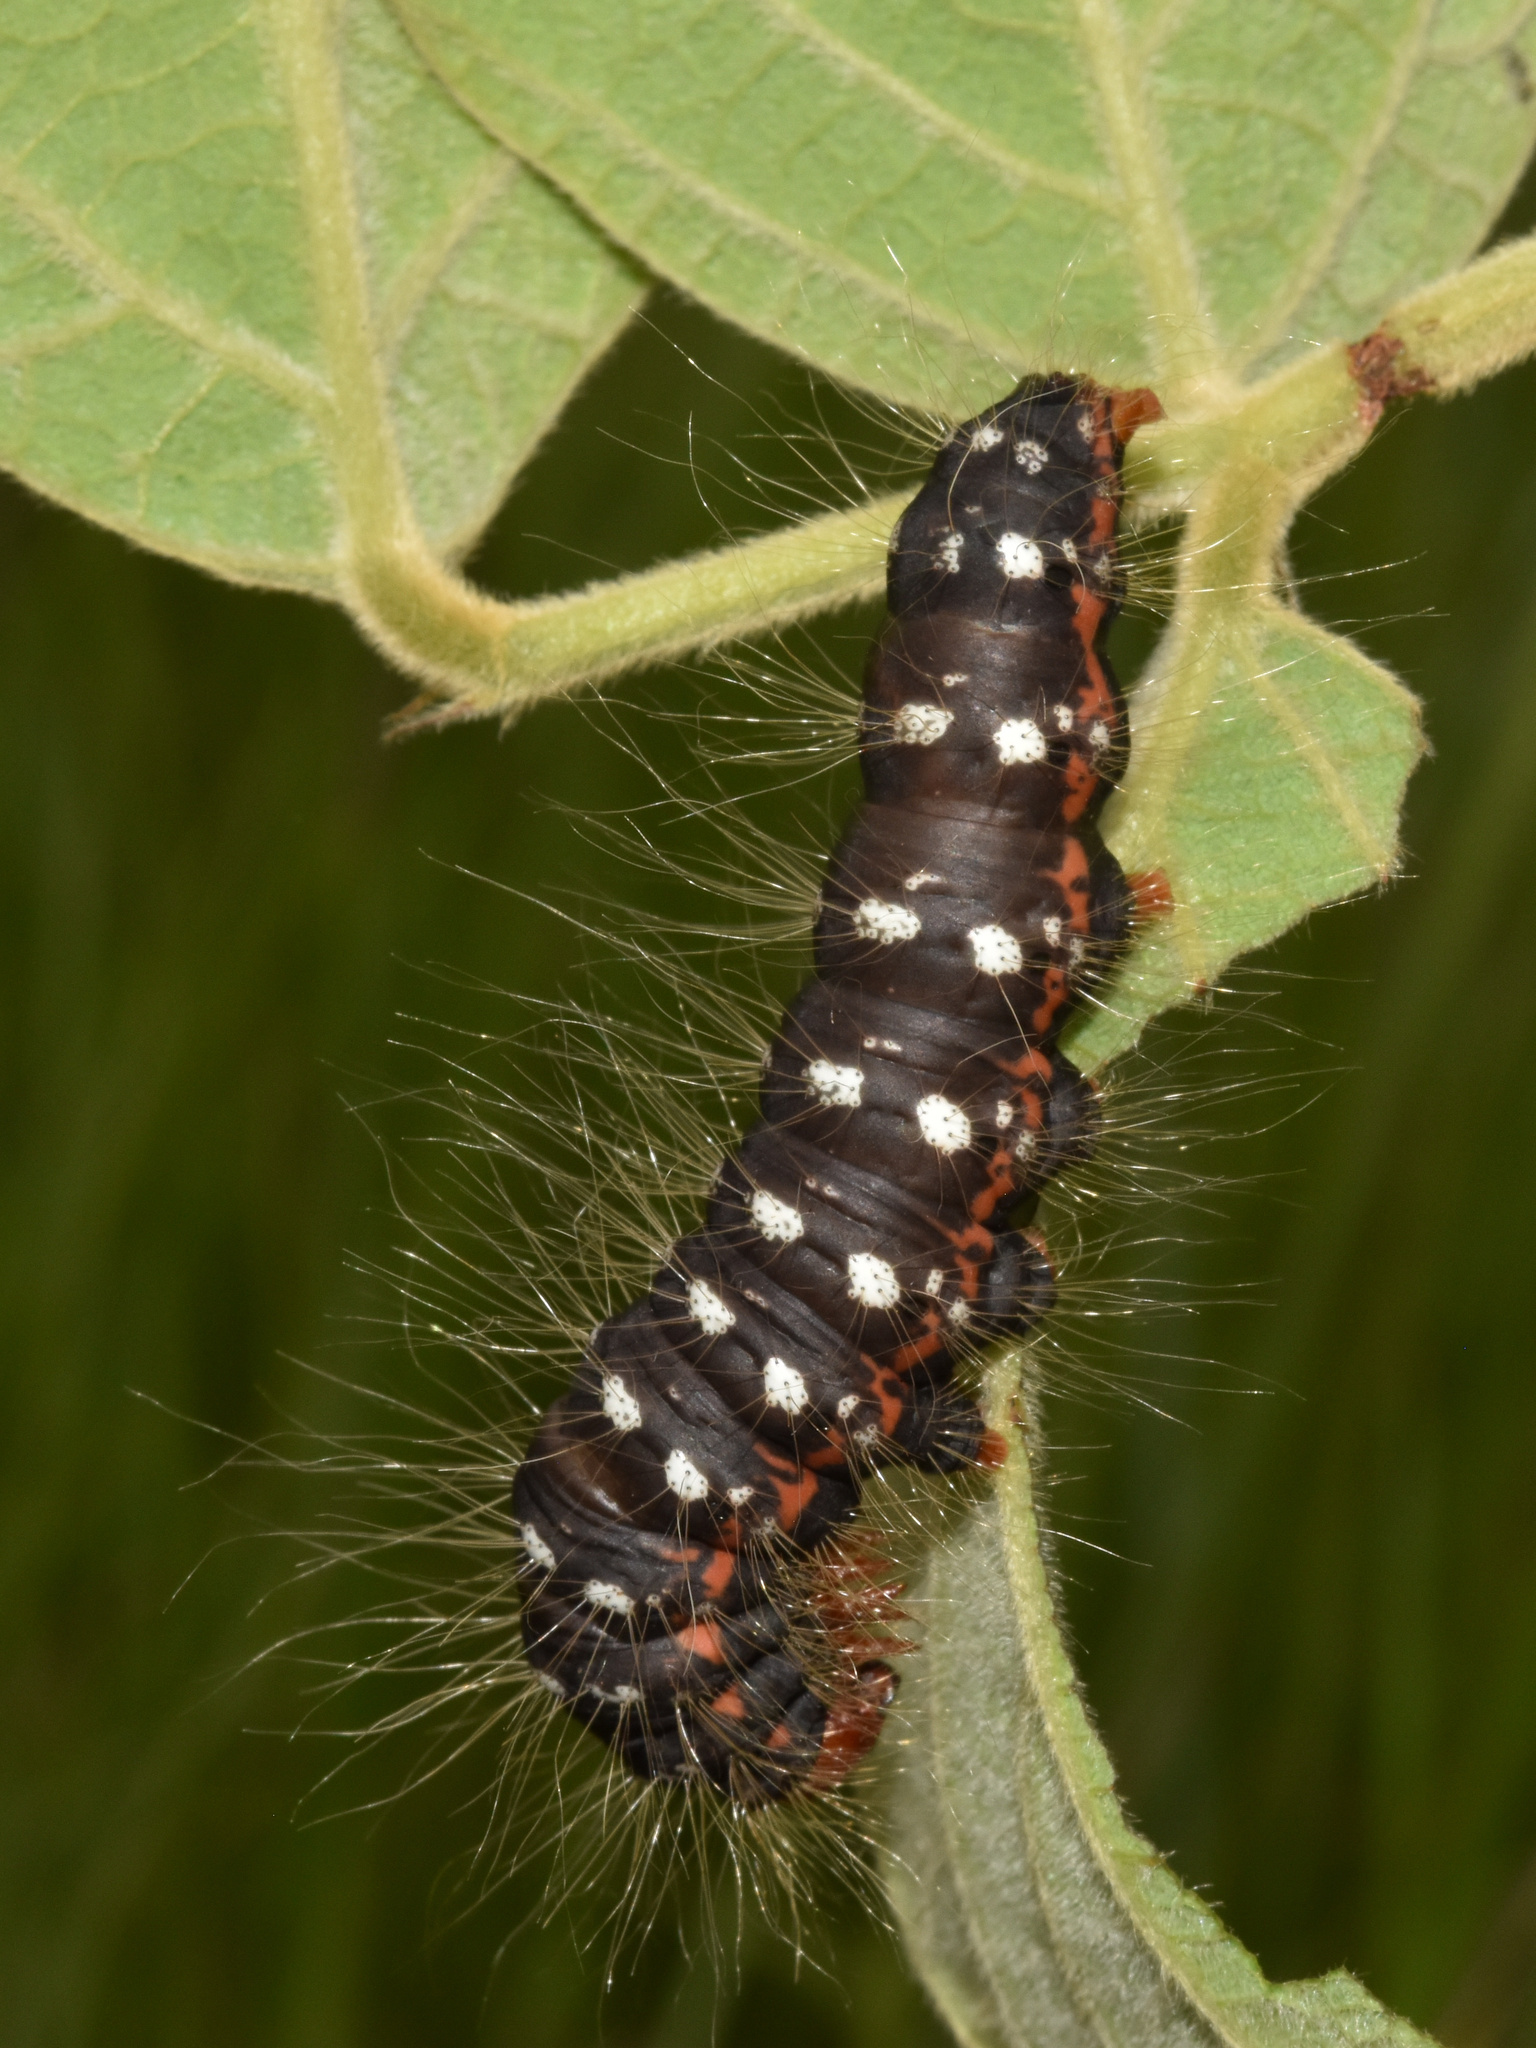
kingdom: Animalia
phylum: Arthropoda
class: Insecta
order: Lepidoptera
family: Notodontidae
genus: Antheua
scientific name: Antheua simplex
